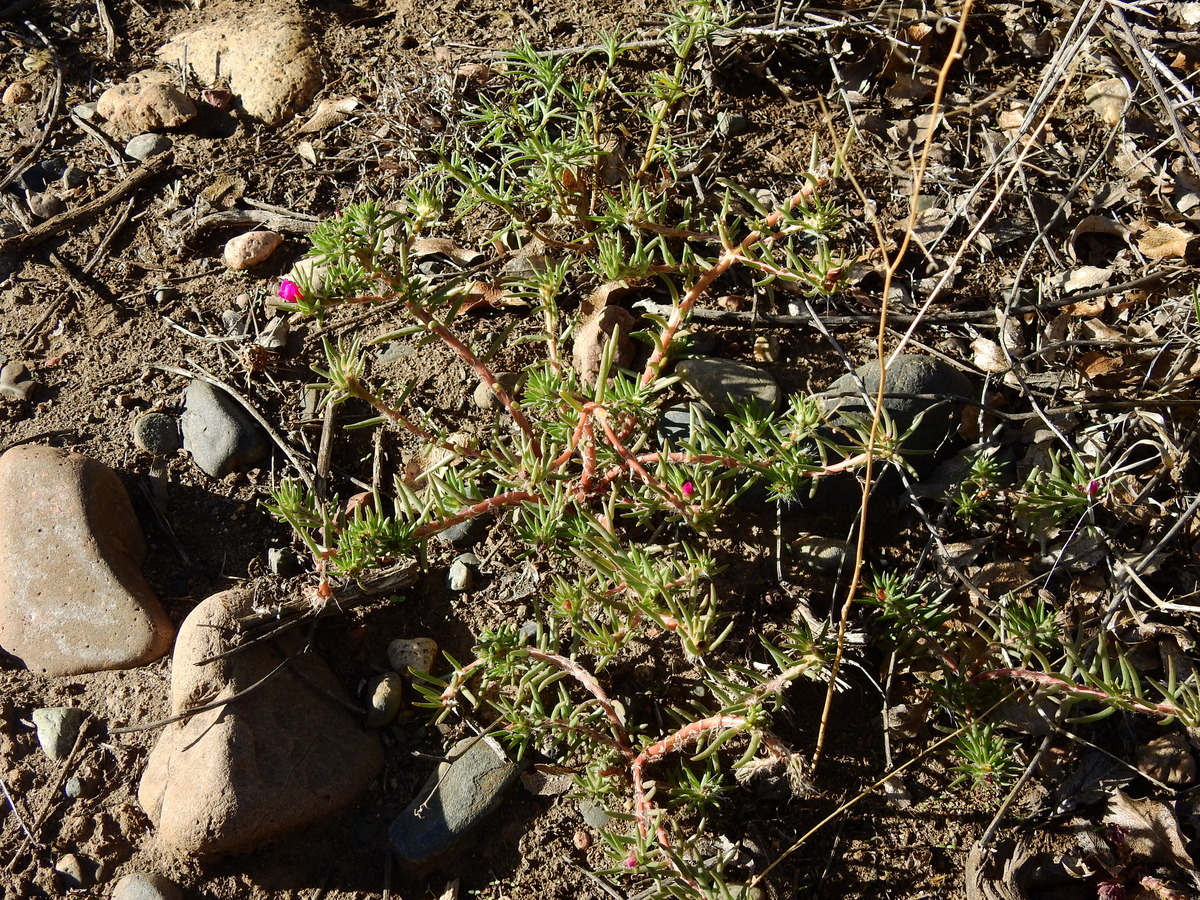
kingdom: Plantae
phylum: Tracheophyta
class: Magnoliopsida
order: Caryophyllales
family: Portulacaceae
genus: Portulaca
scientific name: Portulaca grandiflora
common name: Moss-rose
